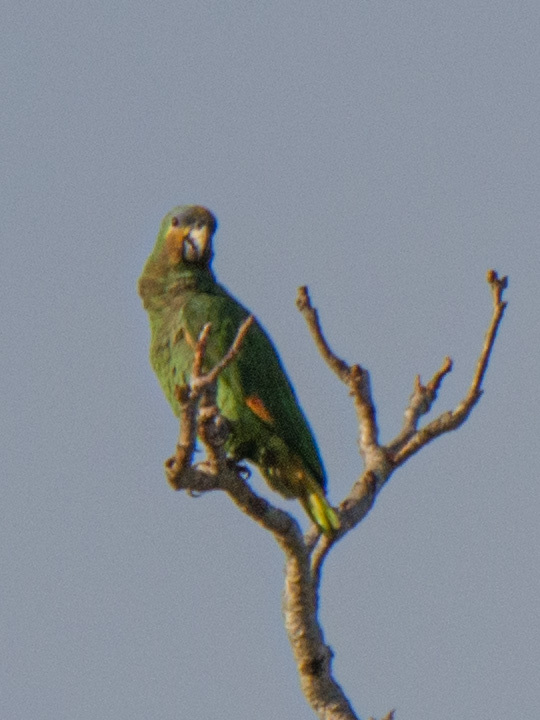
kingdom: Animalia
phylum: Chordata
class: Aves
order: Psittaciformes
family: Psittacidae
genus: Amazona
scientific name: Amazona amazonica
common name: Orange-winged amazon
